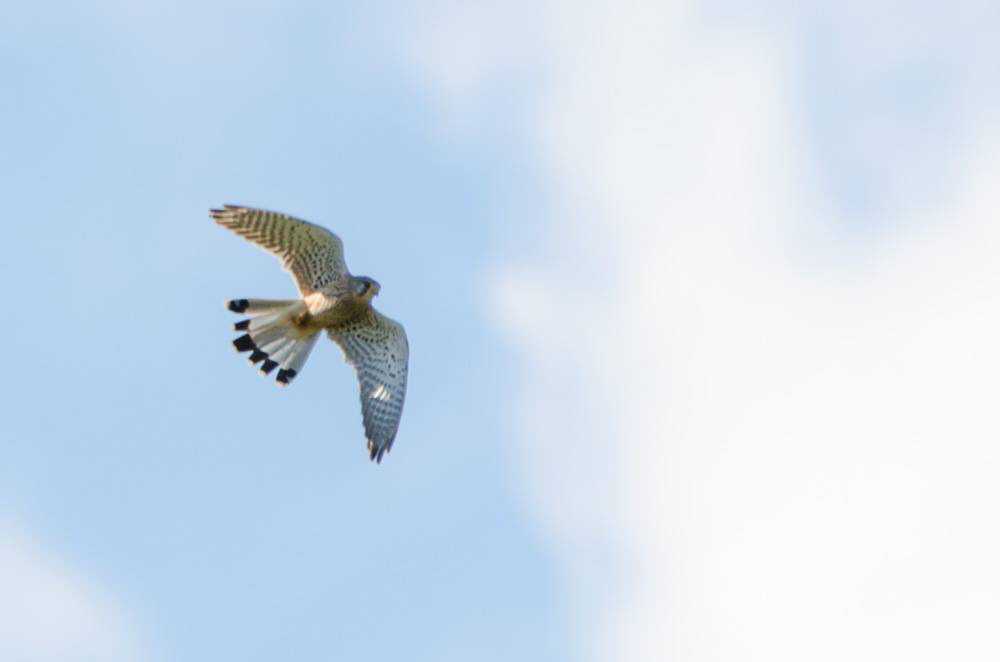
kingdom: Animalia
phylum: Chordata
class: Aves
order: Falconiformes
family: Falconidae
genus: Falco
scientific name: Falco tinnunculus
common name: Common kestrel
